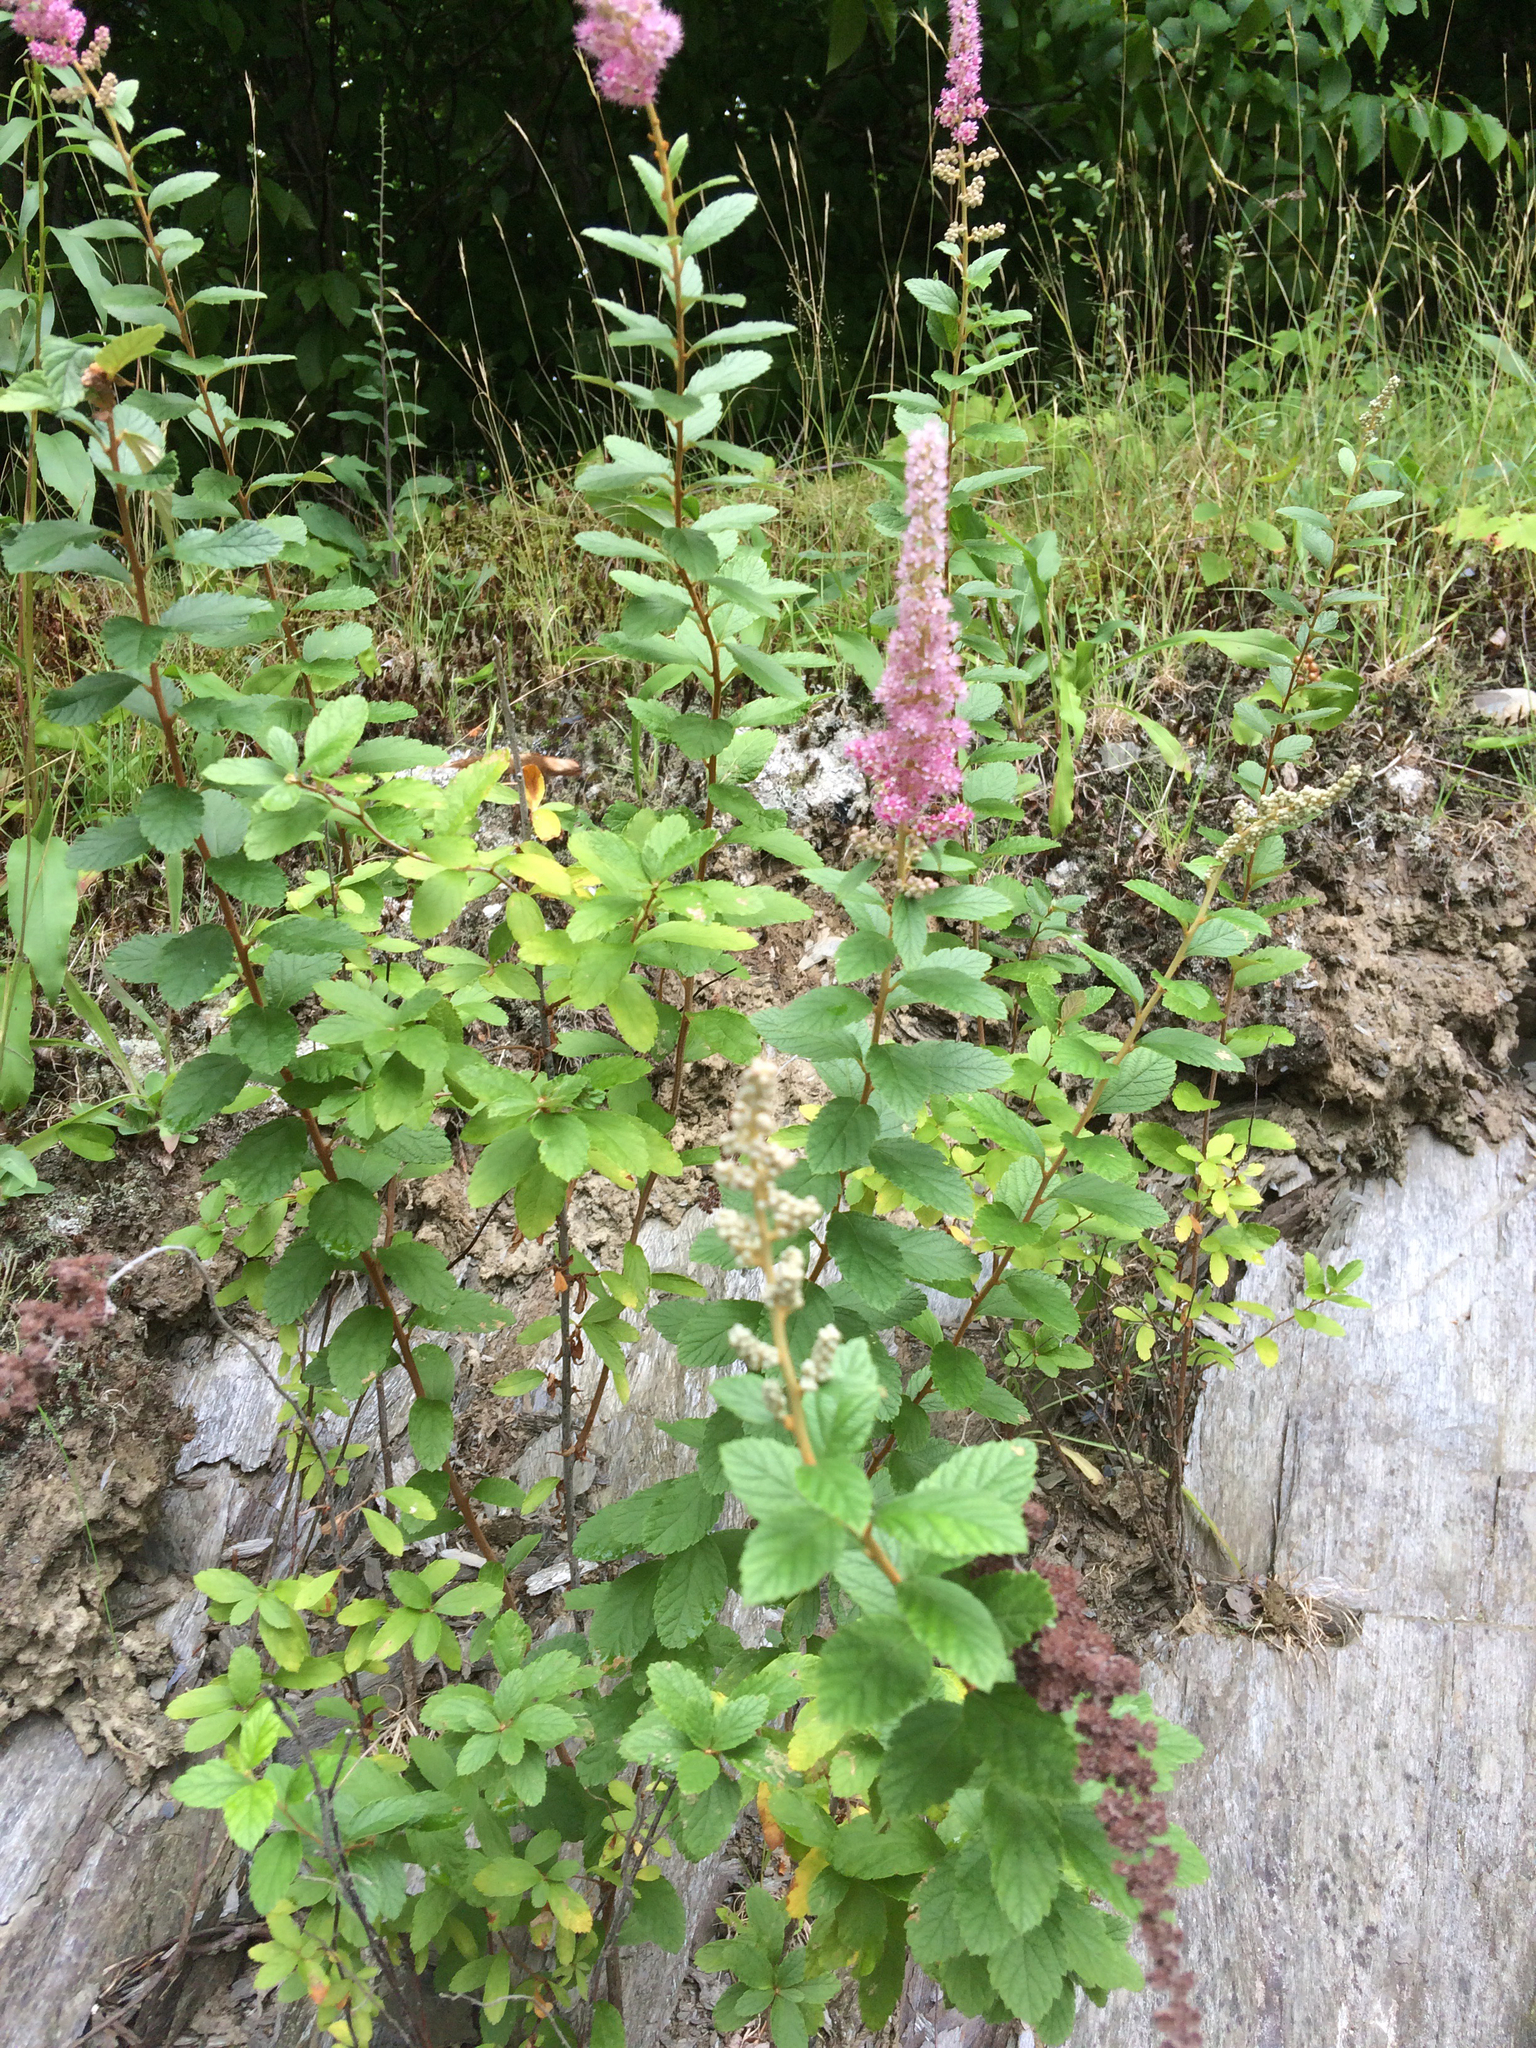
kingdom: Plantae
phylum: Tracheophyta
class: Magnoliopsida
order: Rosales
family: Rosaceae
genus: Spiraea
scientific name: Spiraea tomentosa
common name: Hardhack
